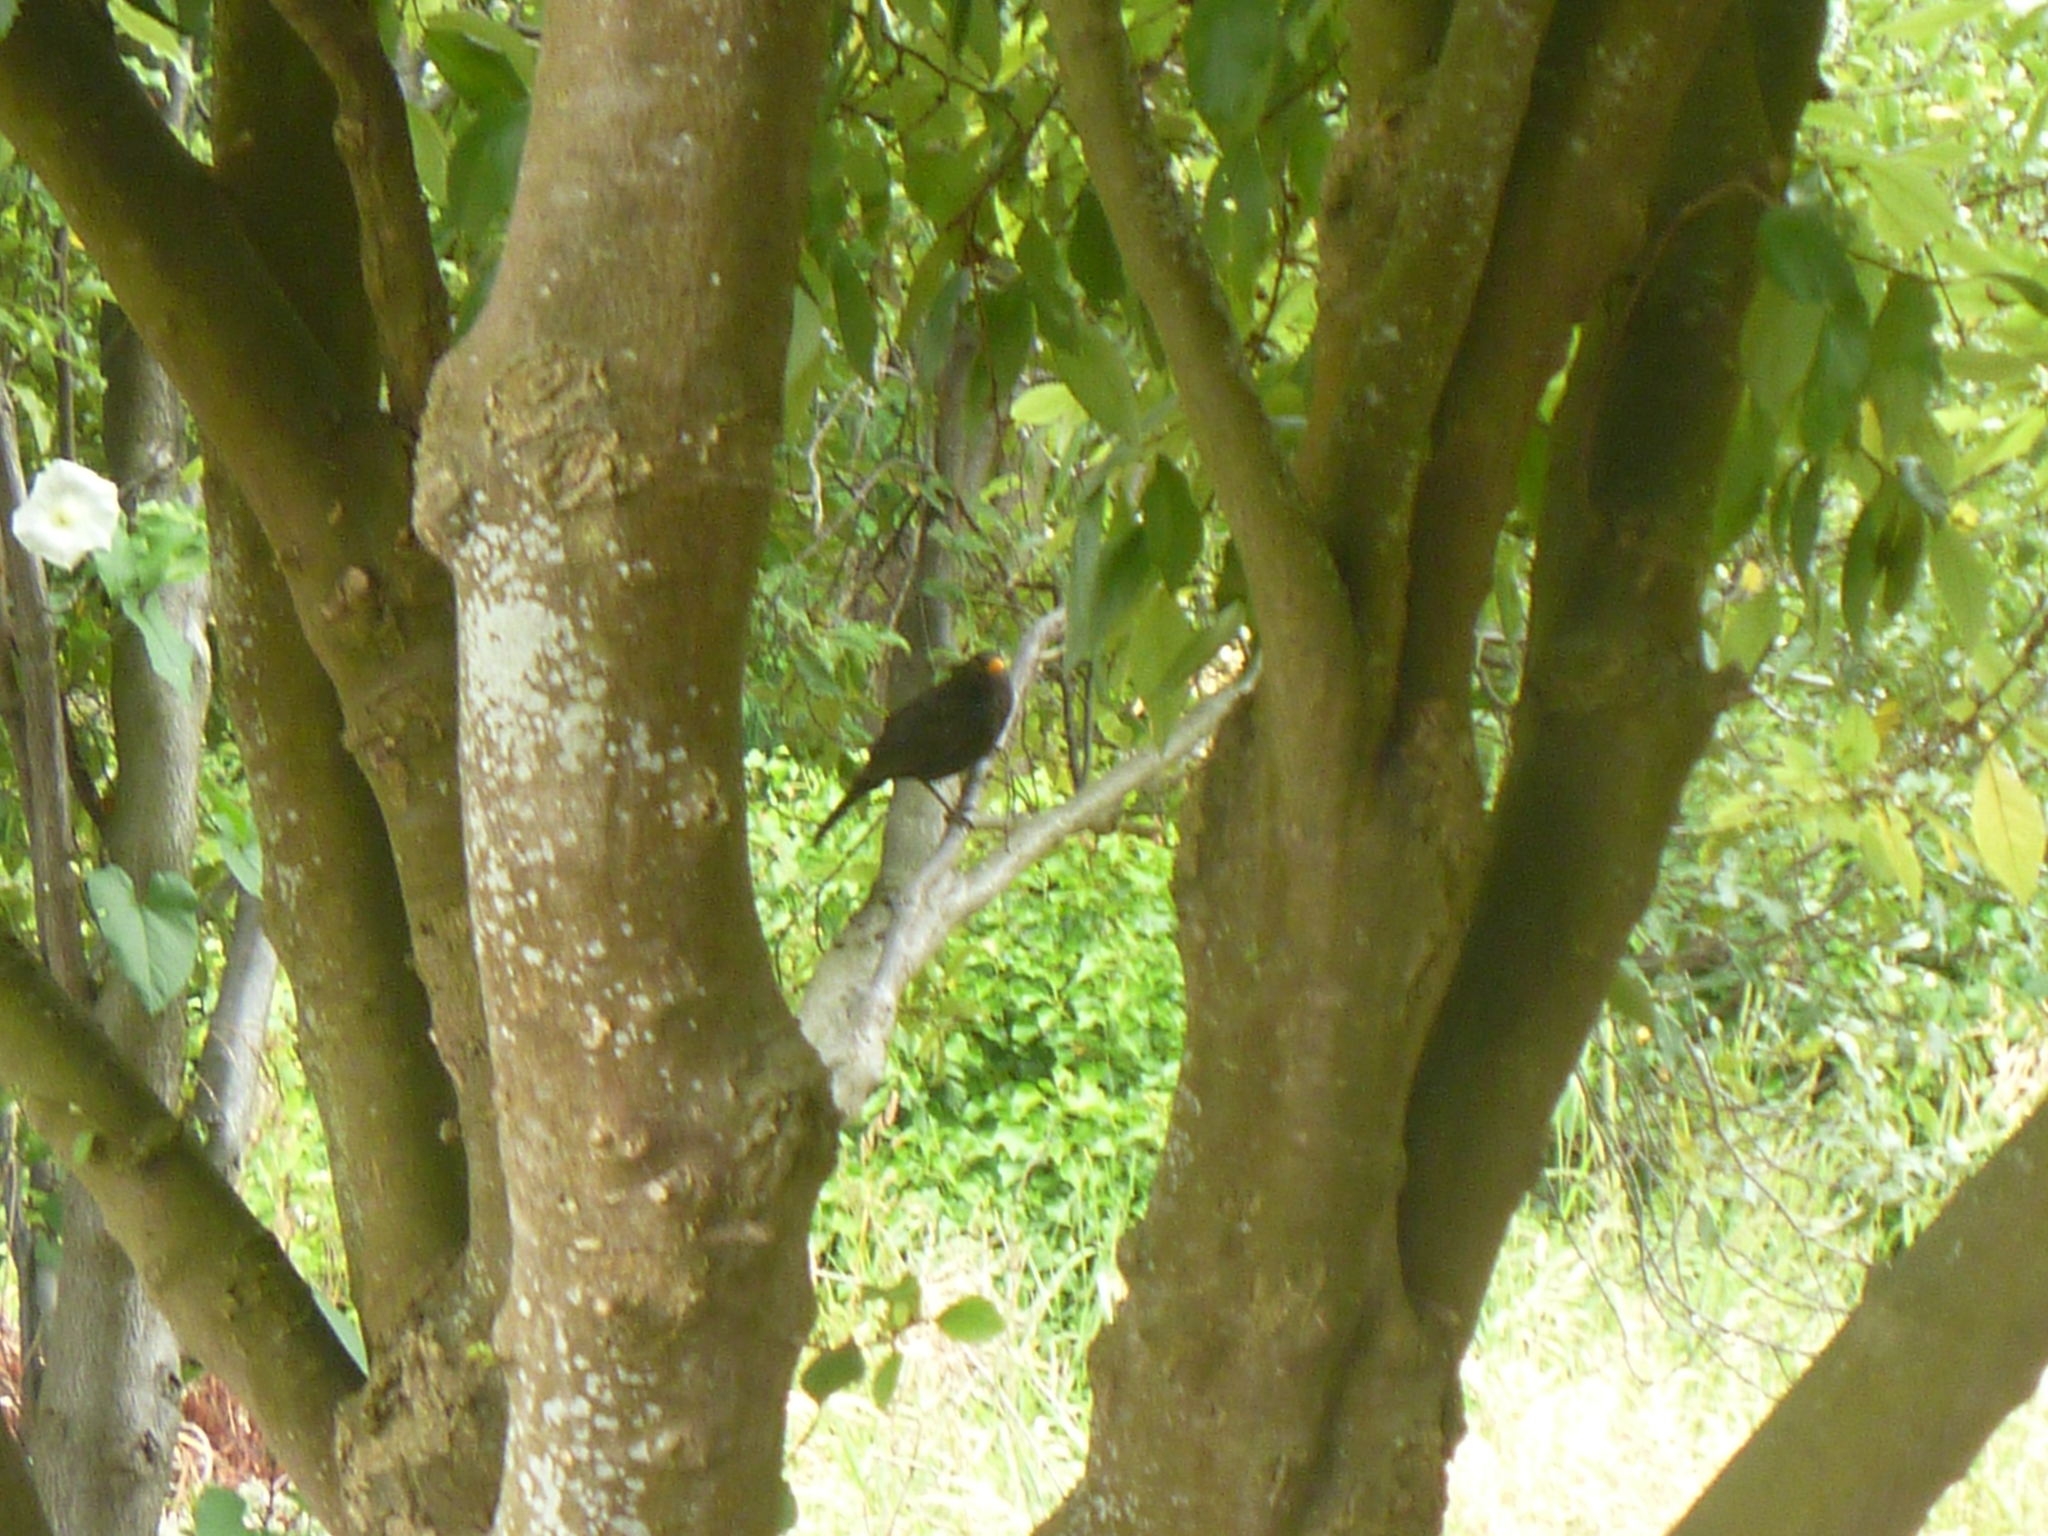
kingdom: Animalia
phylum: Chordata
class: Aves
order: Passeriformes
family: Turdidae
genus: Turdus
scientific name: Turdus merula
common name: Common blackbird
